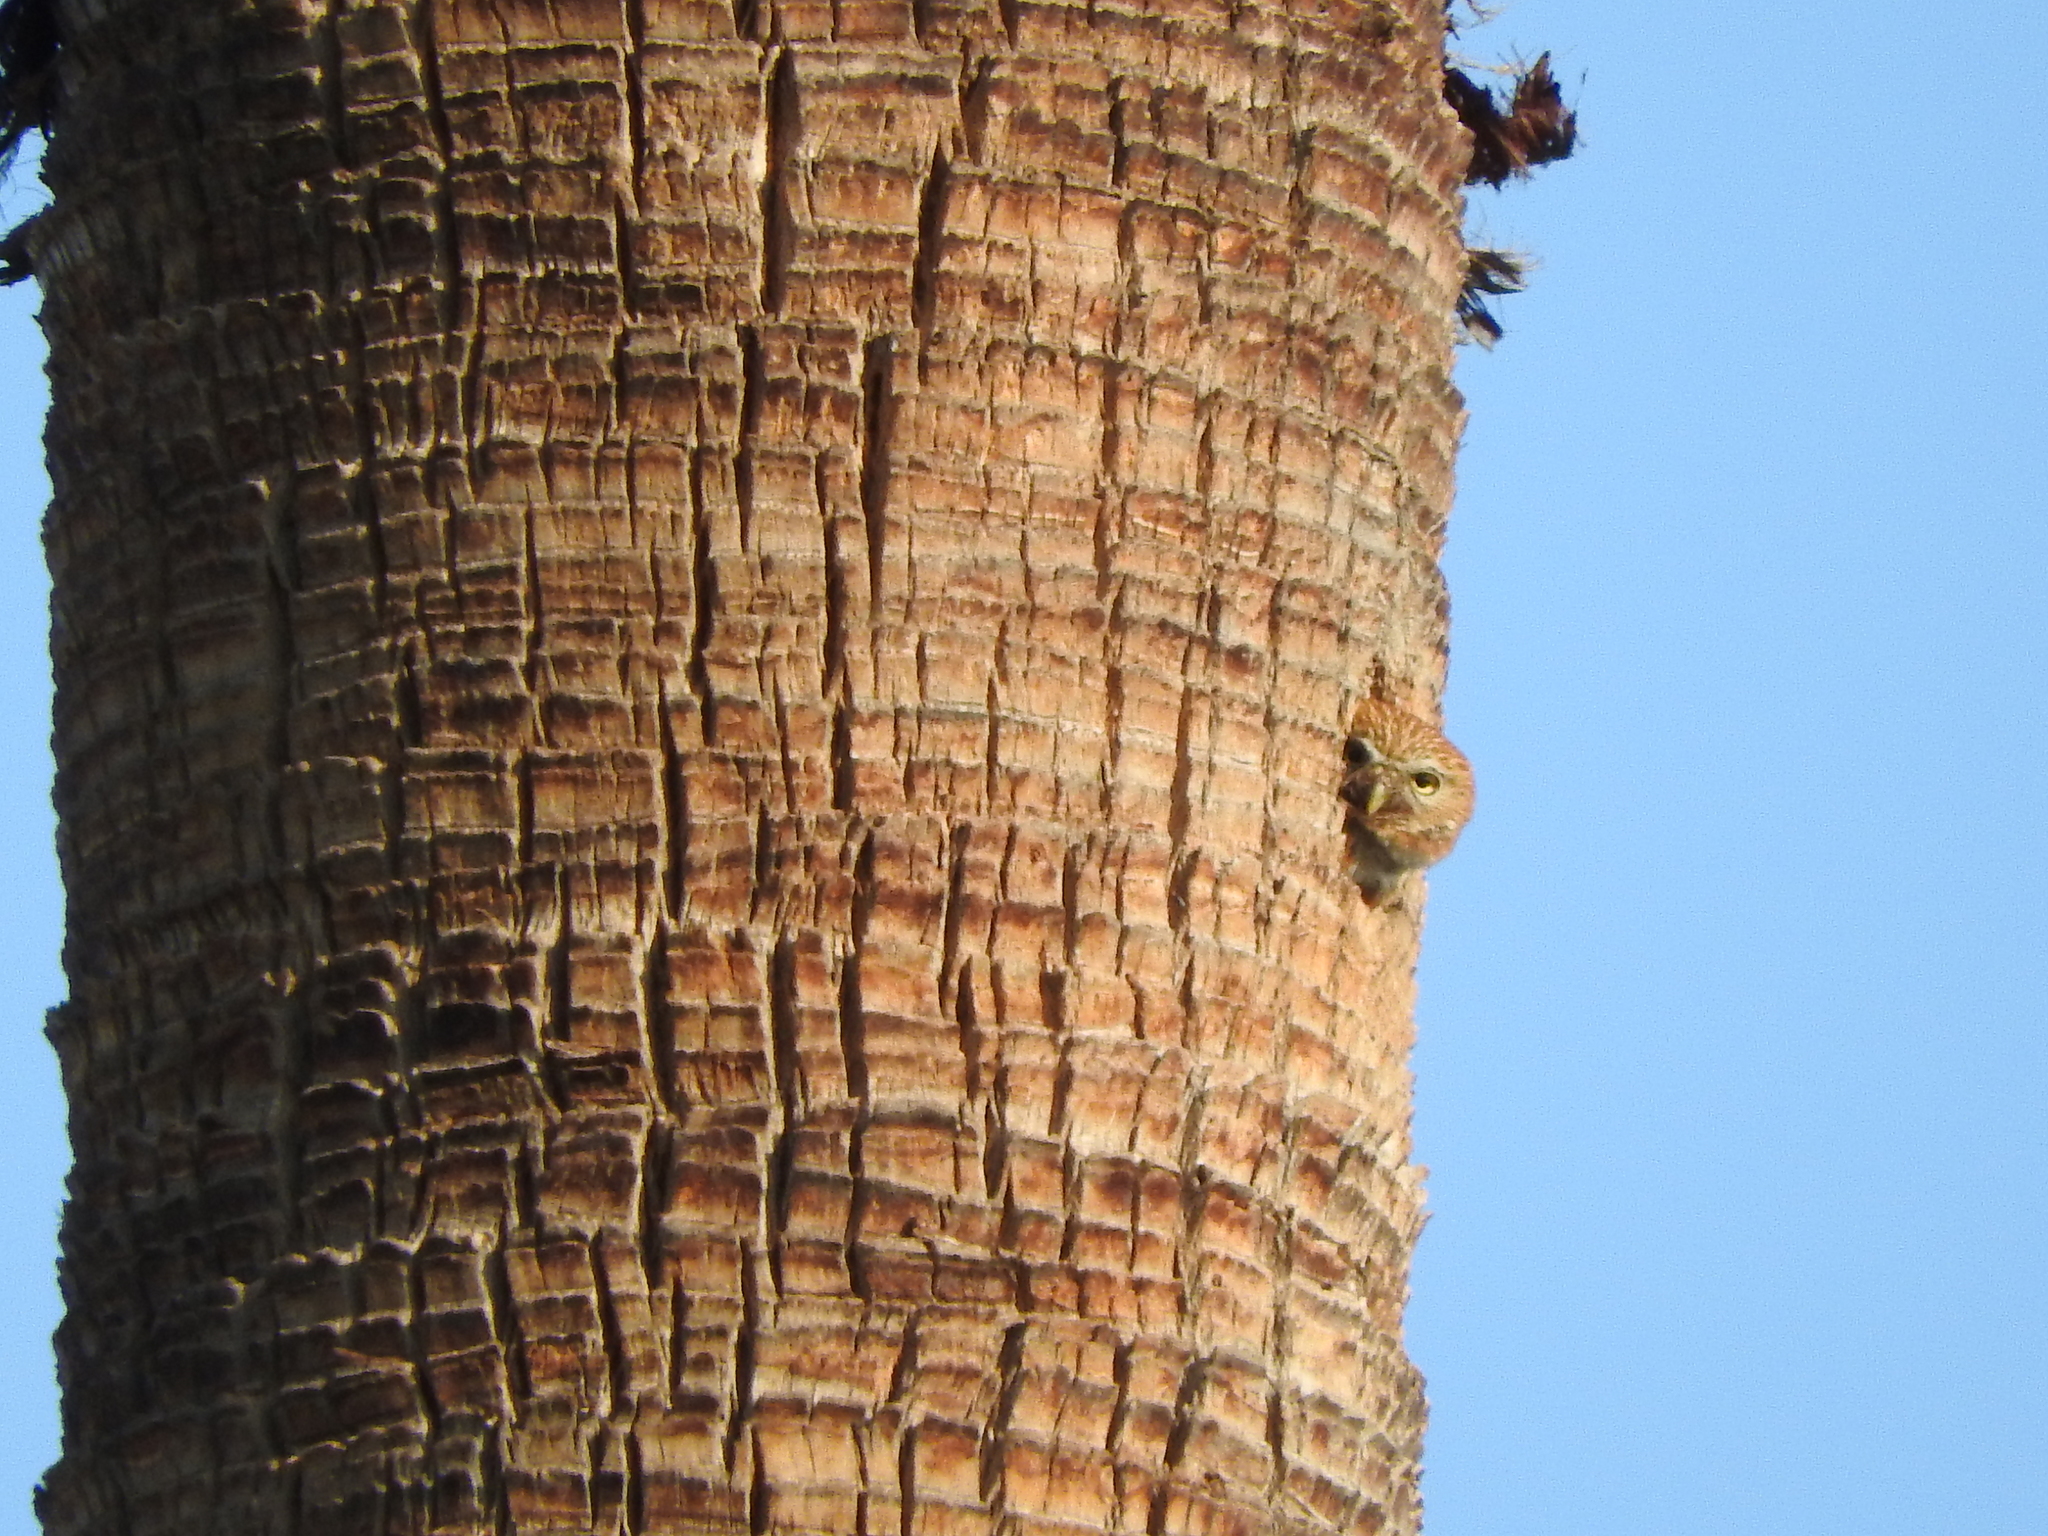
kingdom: Animalia
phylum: Chordata
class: Aves
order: Strigiformes
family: Strigidae
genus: Glaucidium
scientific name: Glaucidium brasilianum
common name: Ferruginous pygmy-owl
